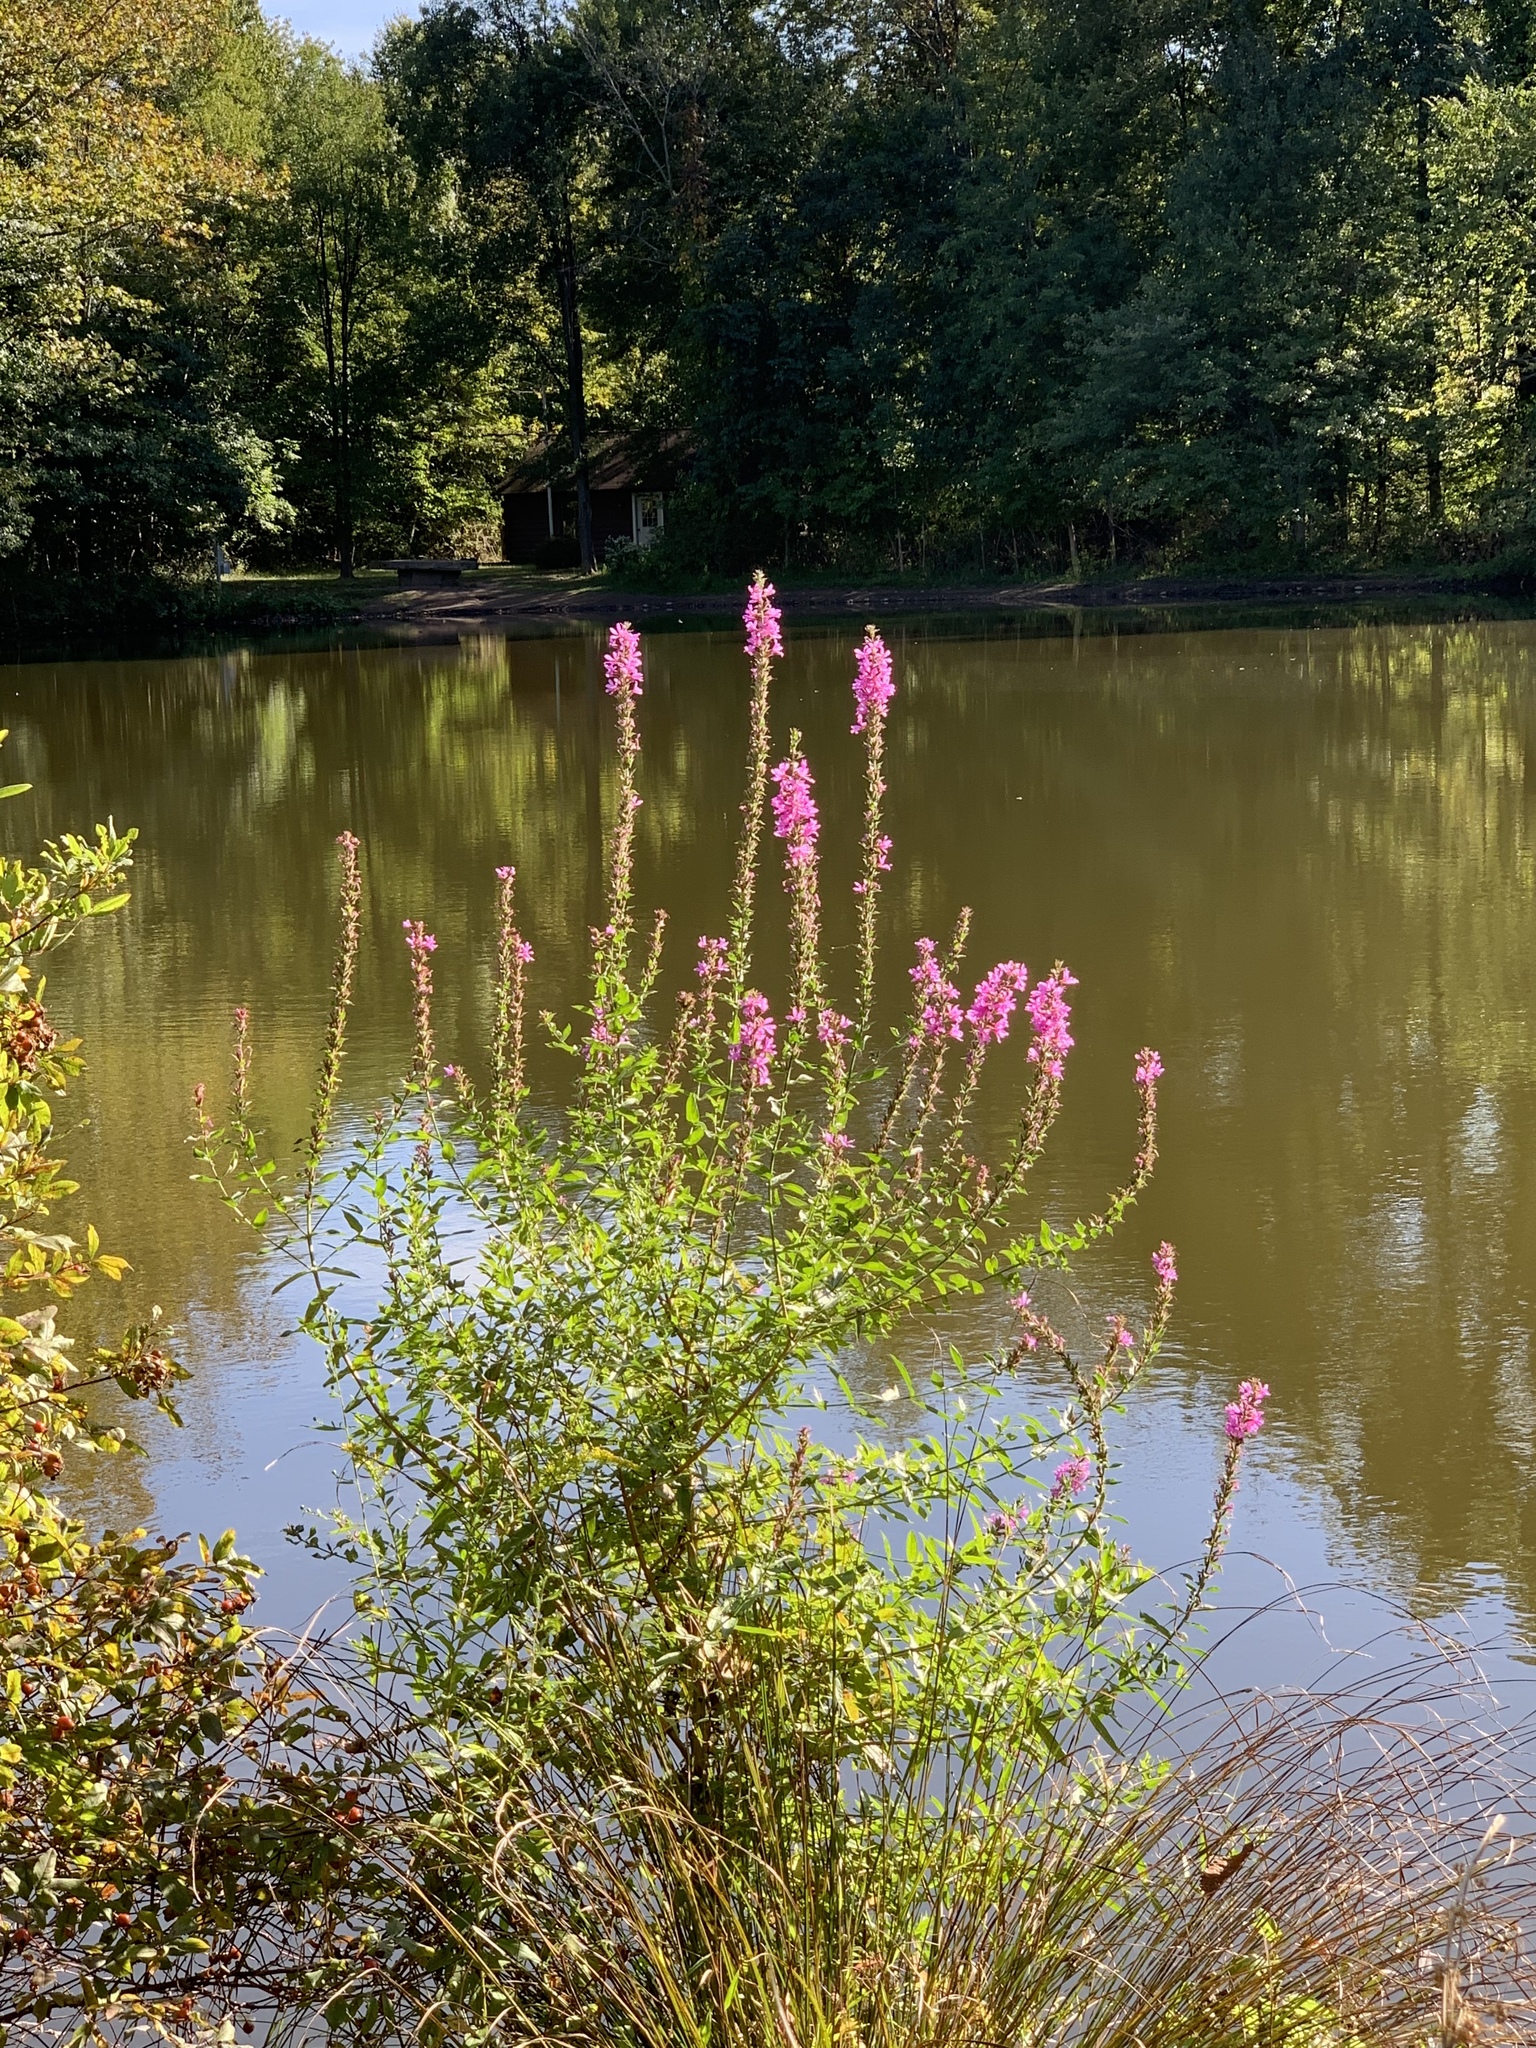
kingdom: Plantae
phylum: Tracheophyta
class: Magnoliopsida
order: Myrtales
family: Lythraceae
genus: Lythrum
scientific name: Lythrum salicaria
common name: Purple loosestrife
